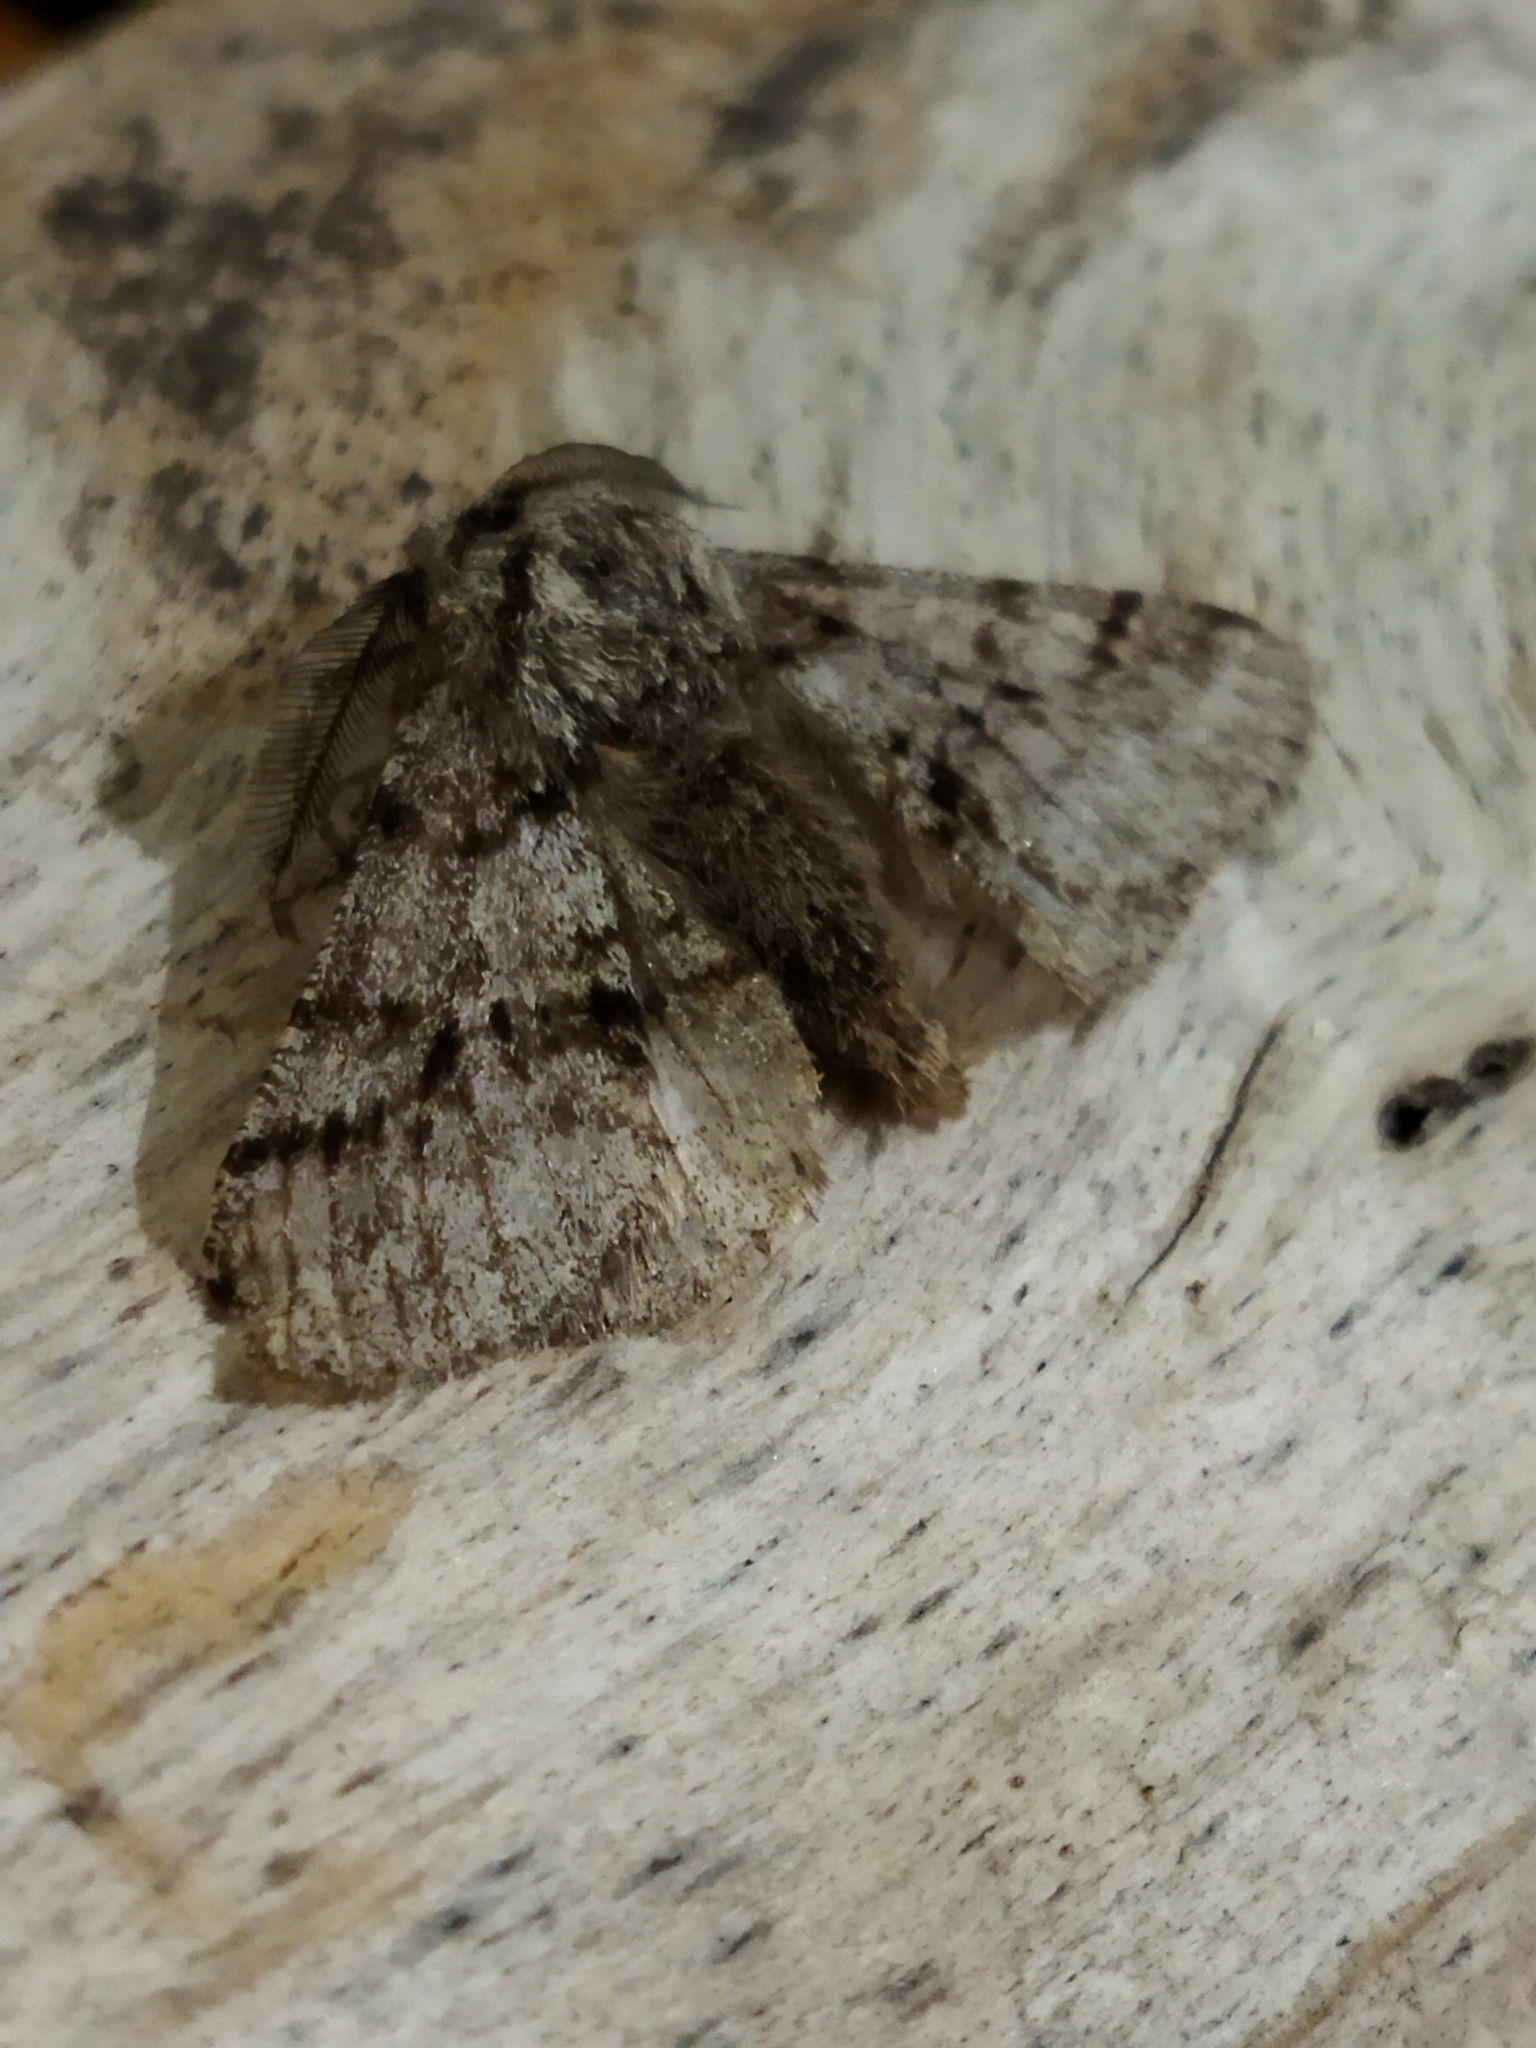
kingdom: Animalia
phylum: Arthropoda
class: Insecta
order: Lepidoptera
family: Geometridae
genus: Lycia
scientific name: Lycia hirtaria
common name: Brindled beauty
